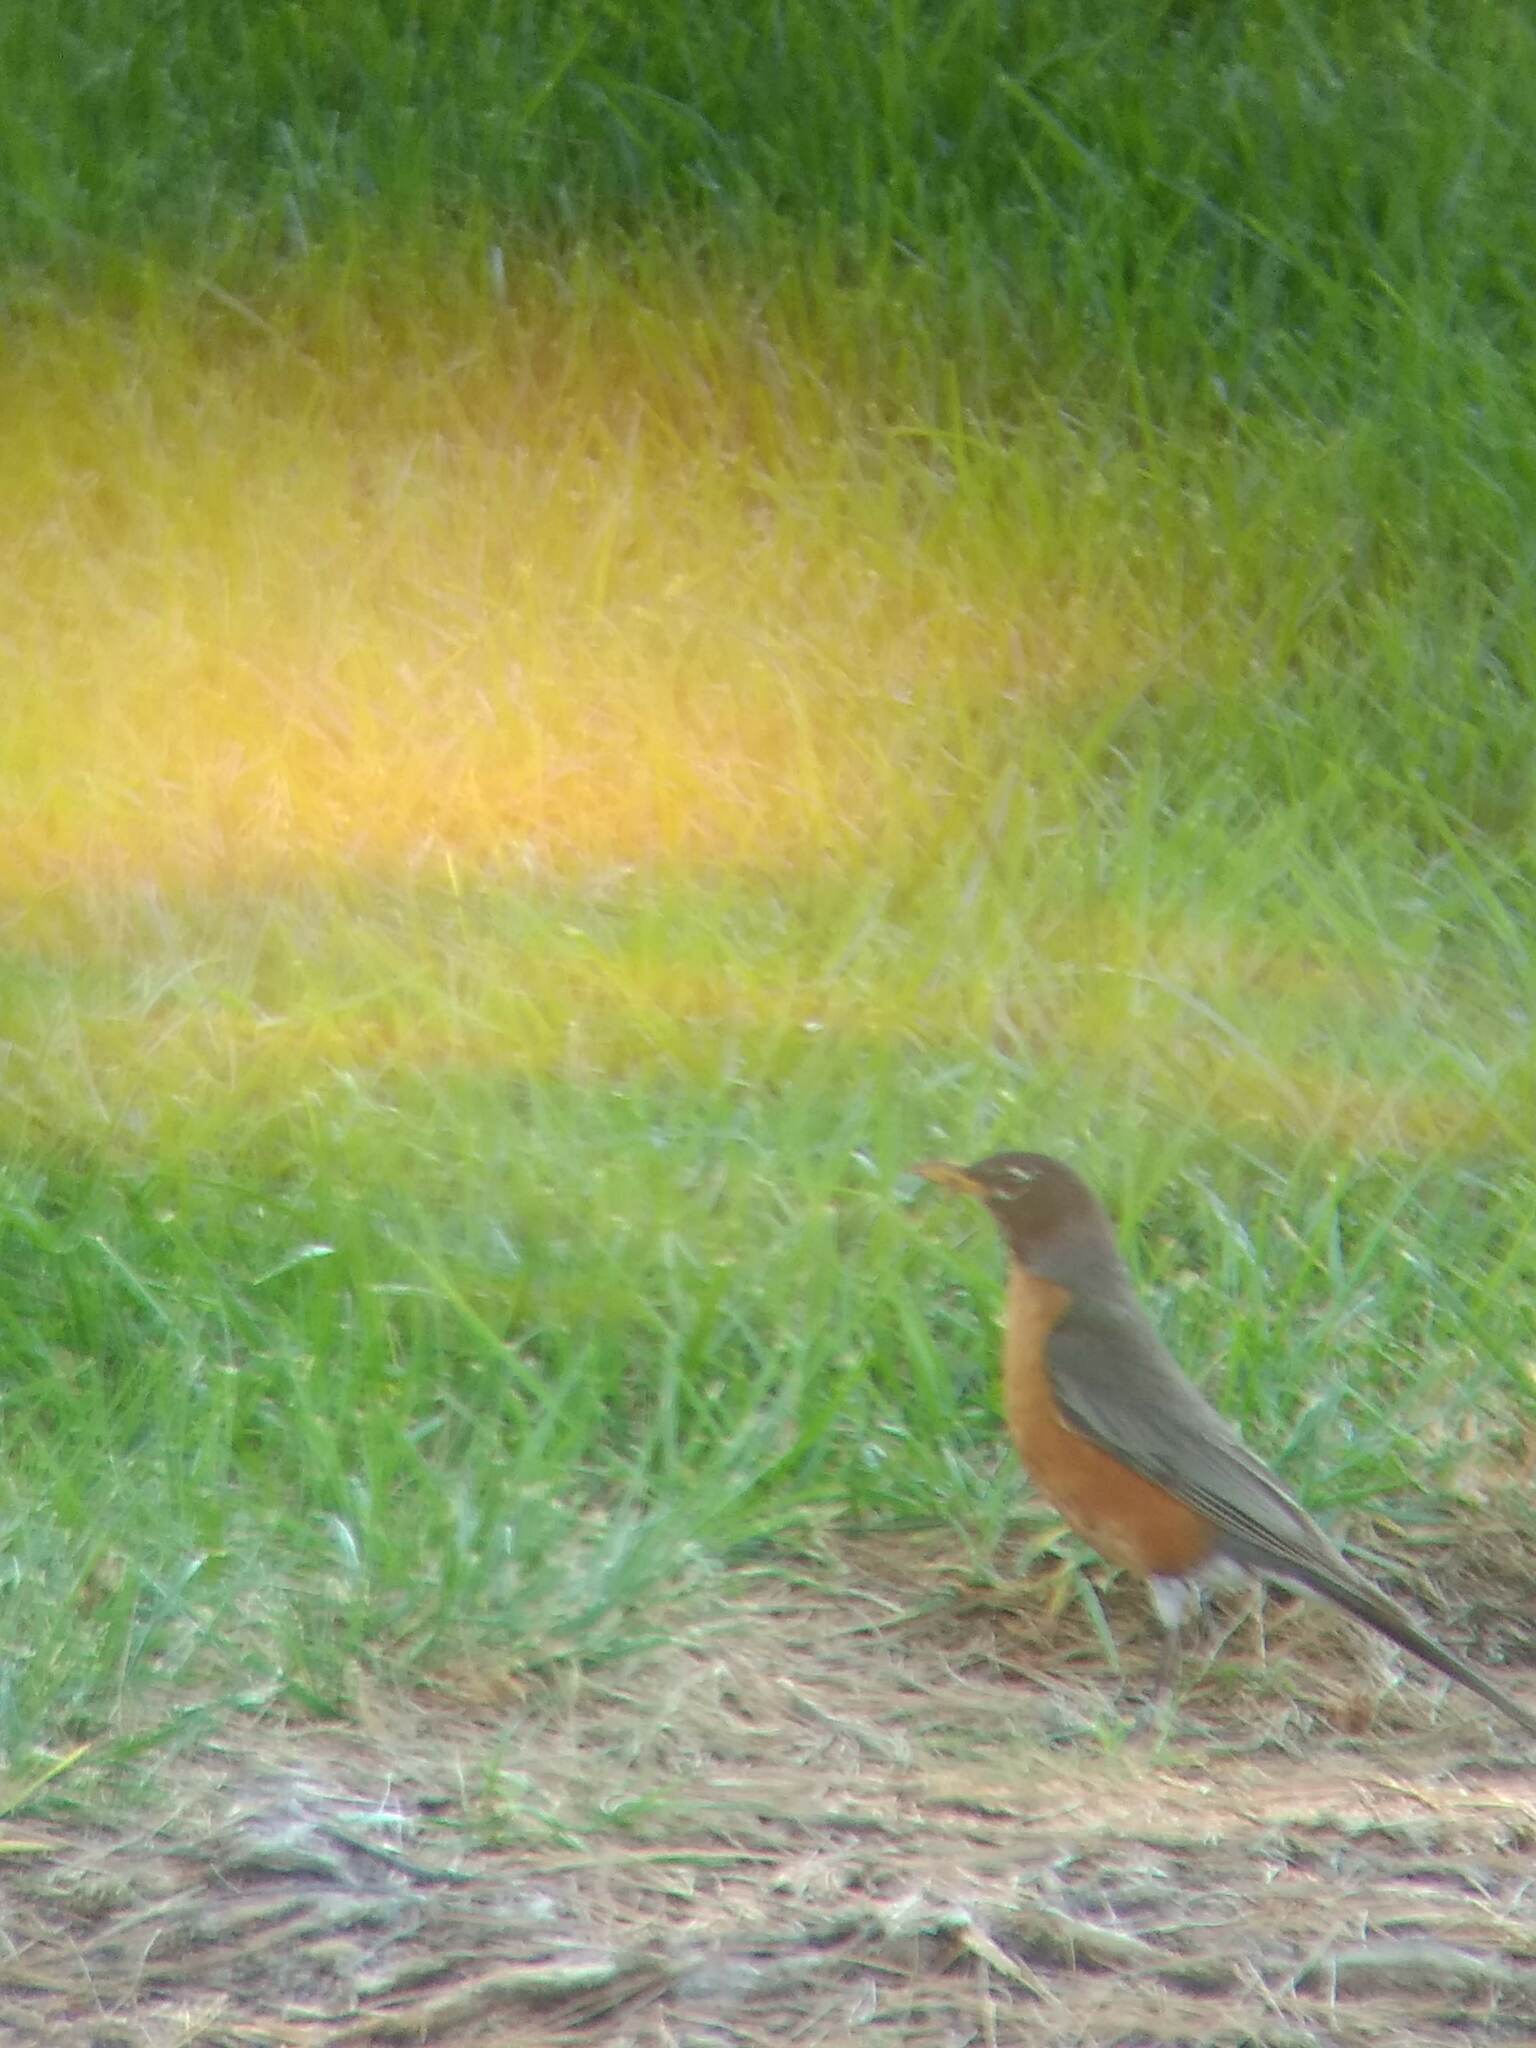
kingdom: Animalia
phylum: Chordata
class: Aves
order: Passeriformes
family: Turdidae
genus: Turdus
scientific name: Turdus migratorius
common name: American robin
